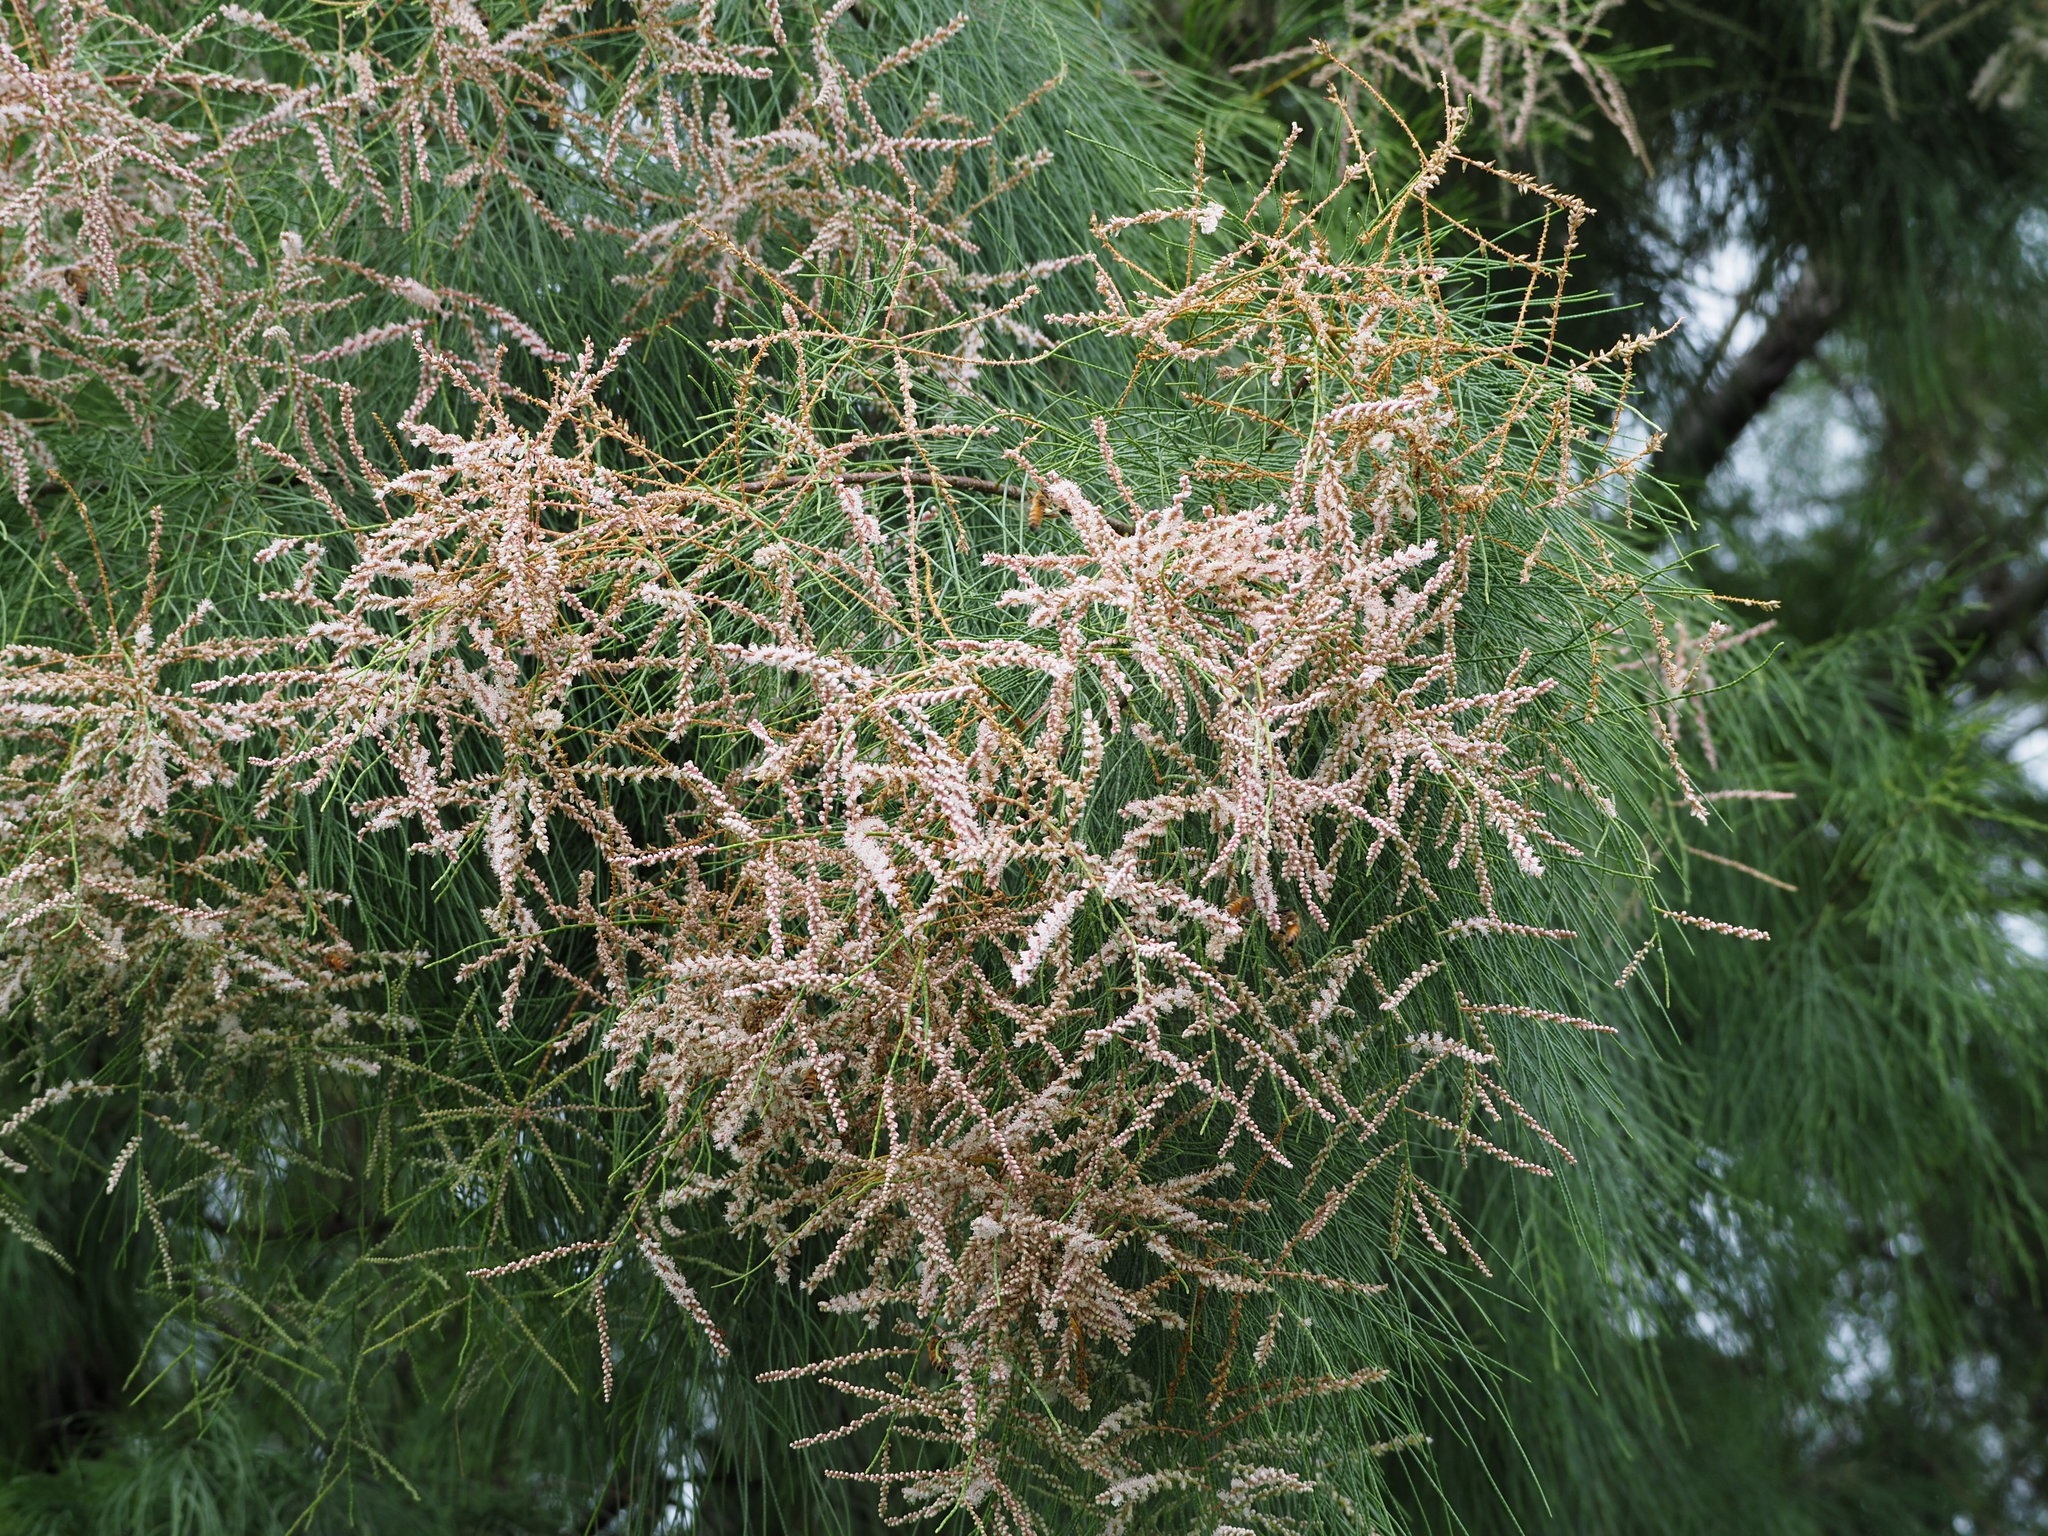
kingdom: Plantae
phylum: Tracheophyta
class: Magnoliopsida
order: Caryophyllales
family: Tamaricaceae
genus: Tamarix
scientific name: Tamarix aphylla
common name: Athel tamarisk
